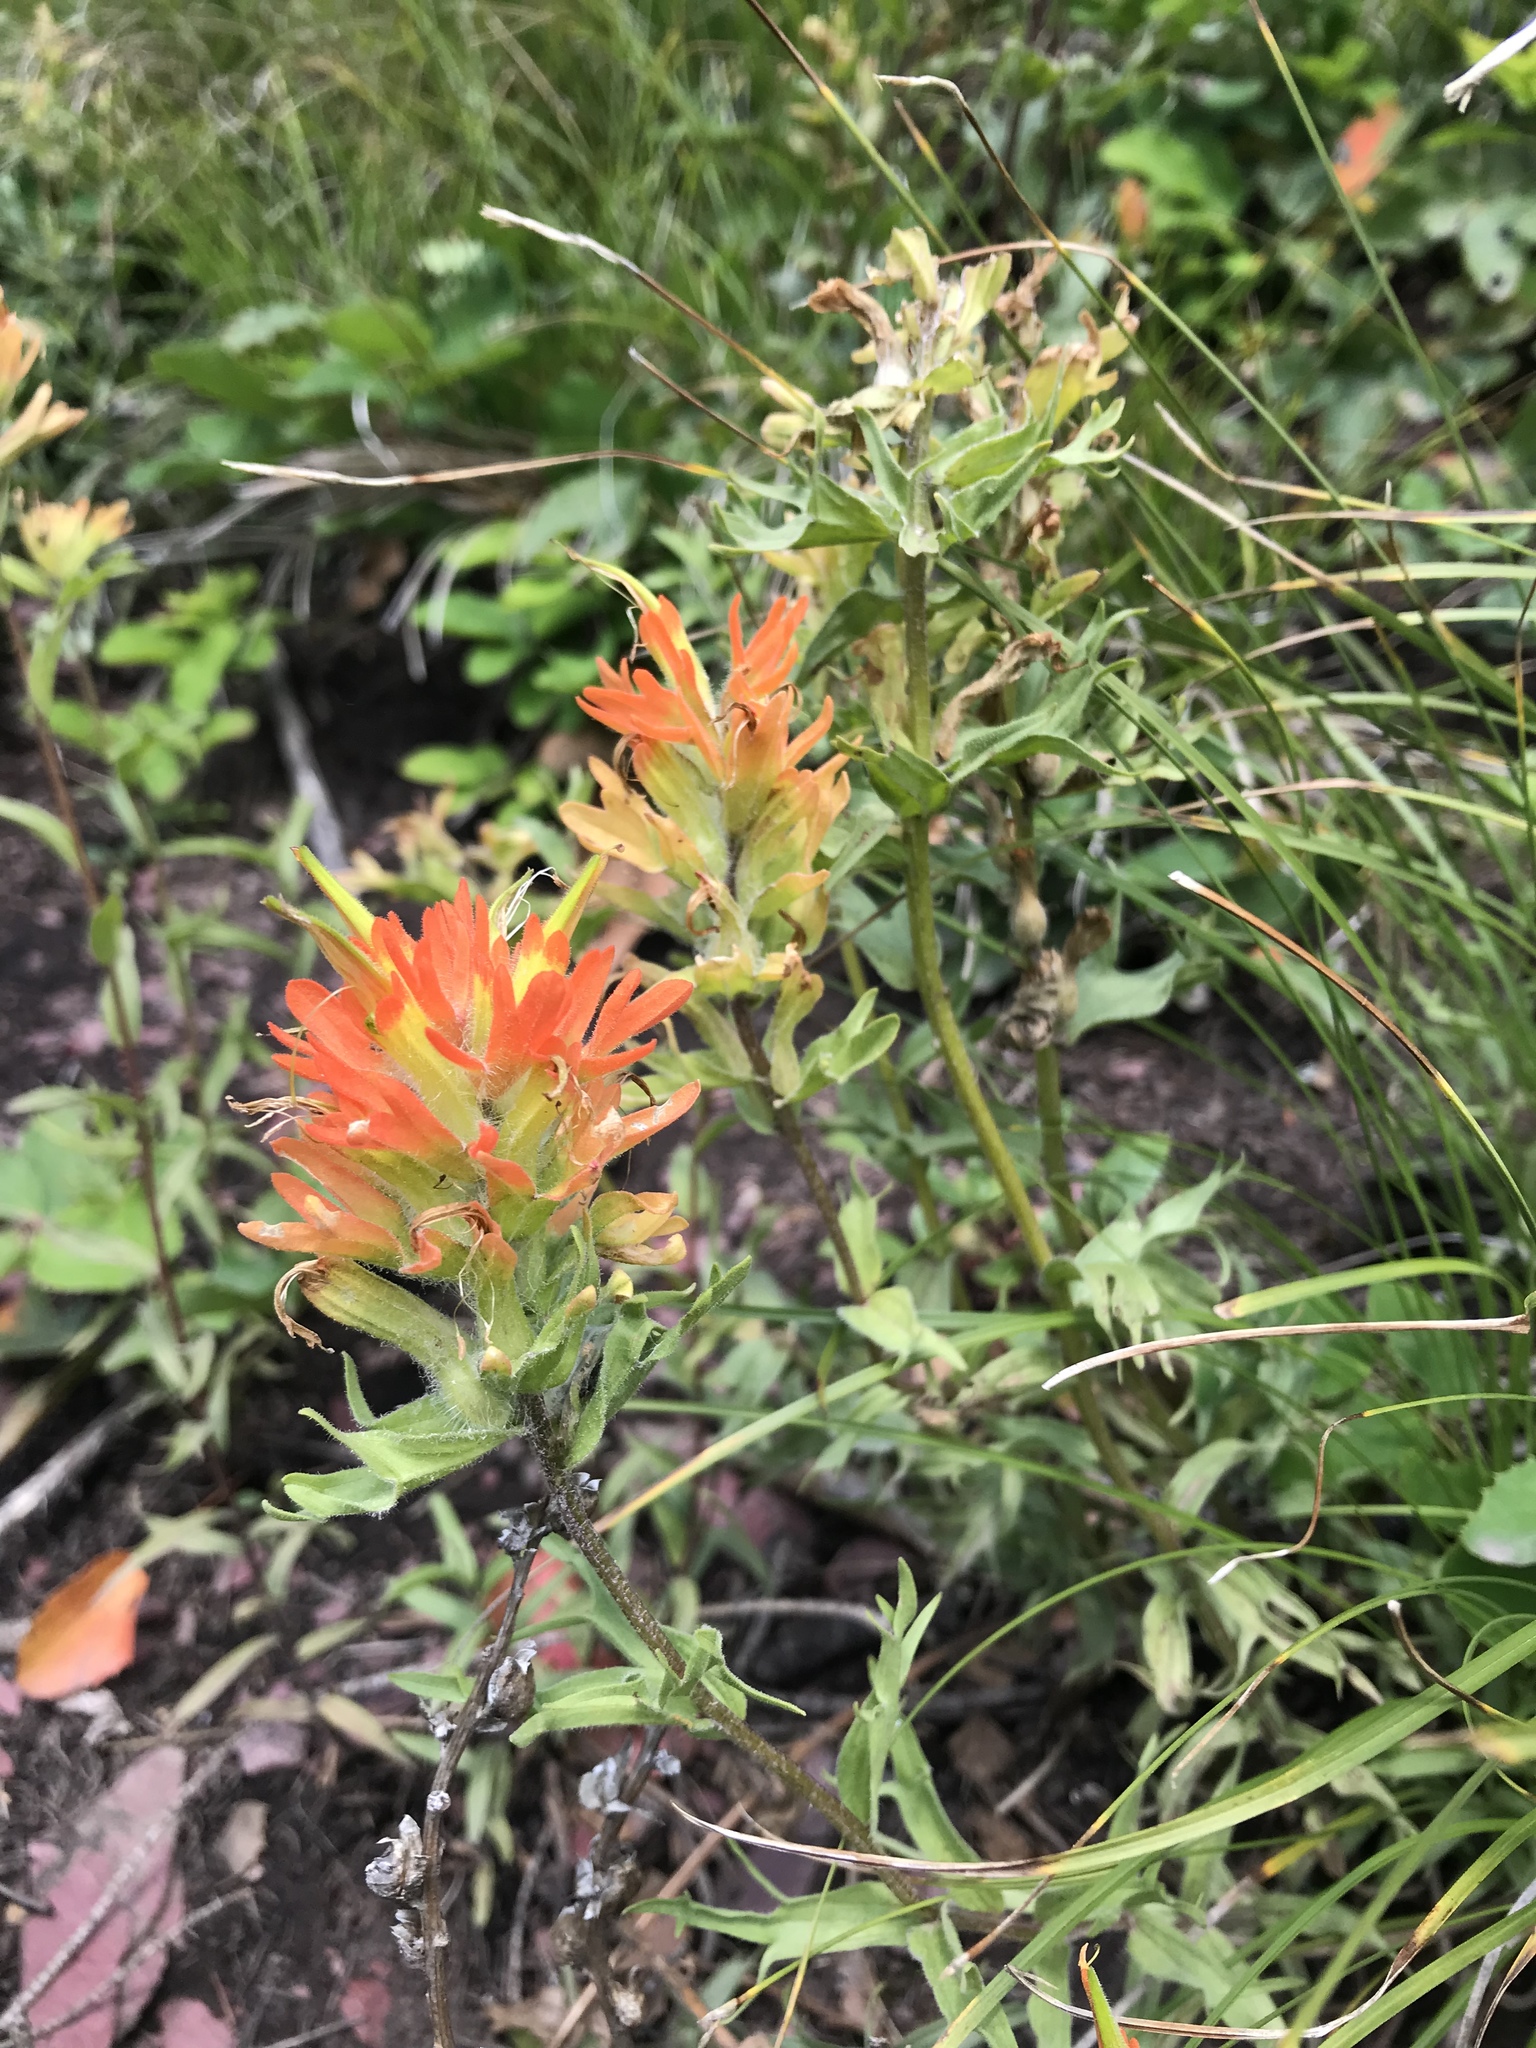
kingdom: Plantae
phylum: Tracheophyta
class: Magnoliopsida
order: Lamiales
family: Orobanchaceae
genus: Castilleja
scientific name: Castilleja hispida
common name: Bristly paintbrush
